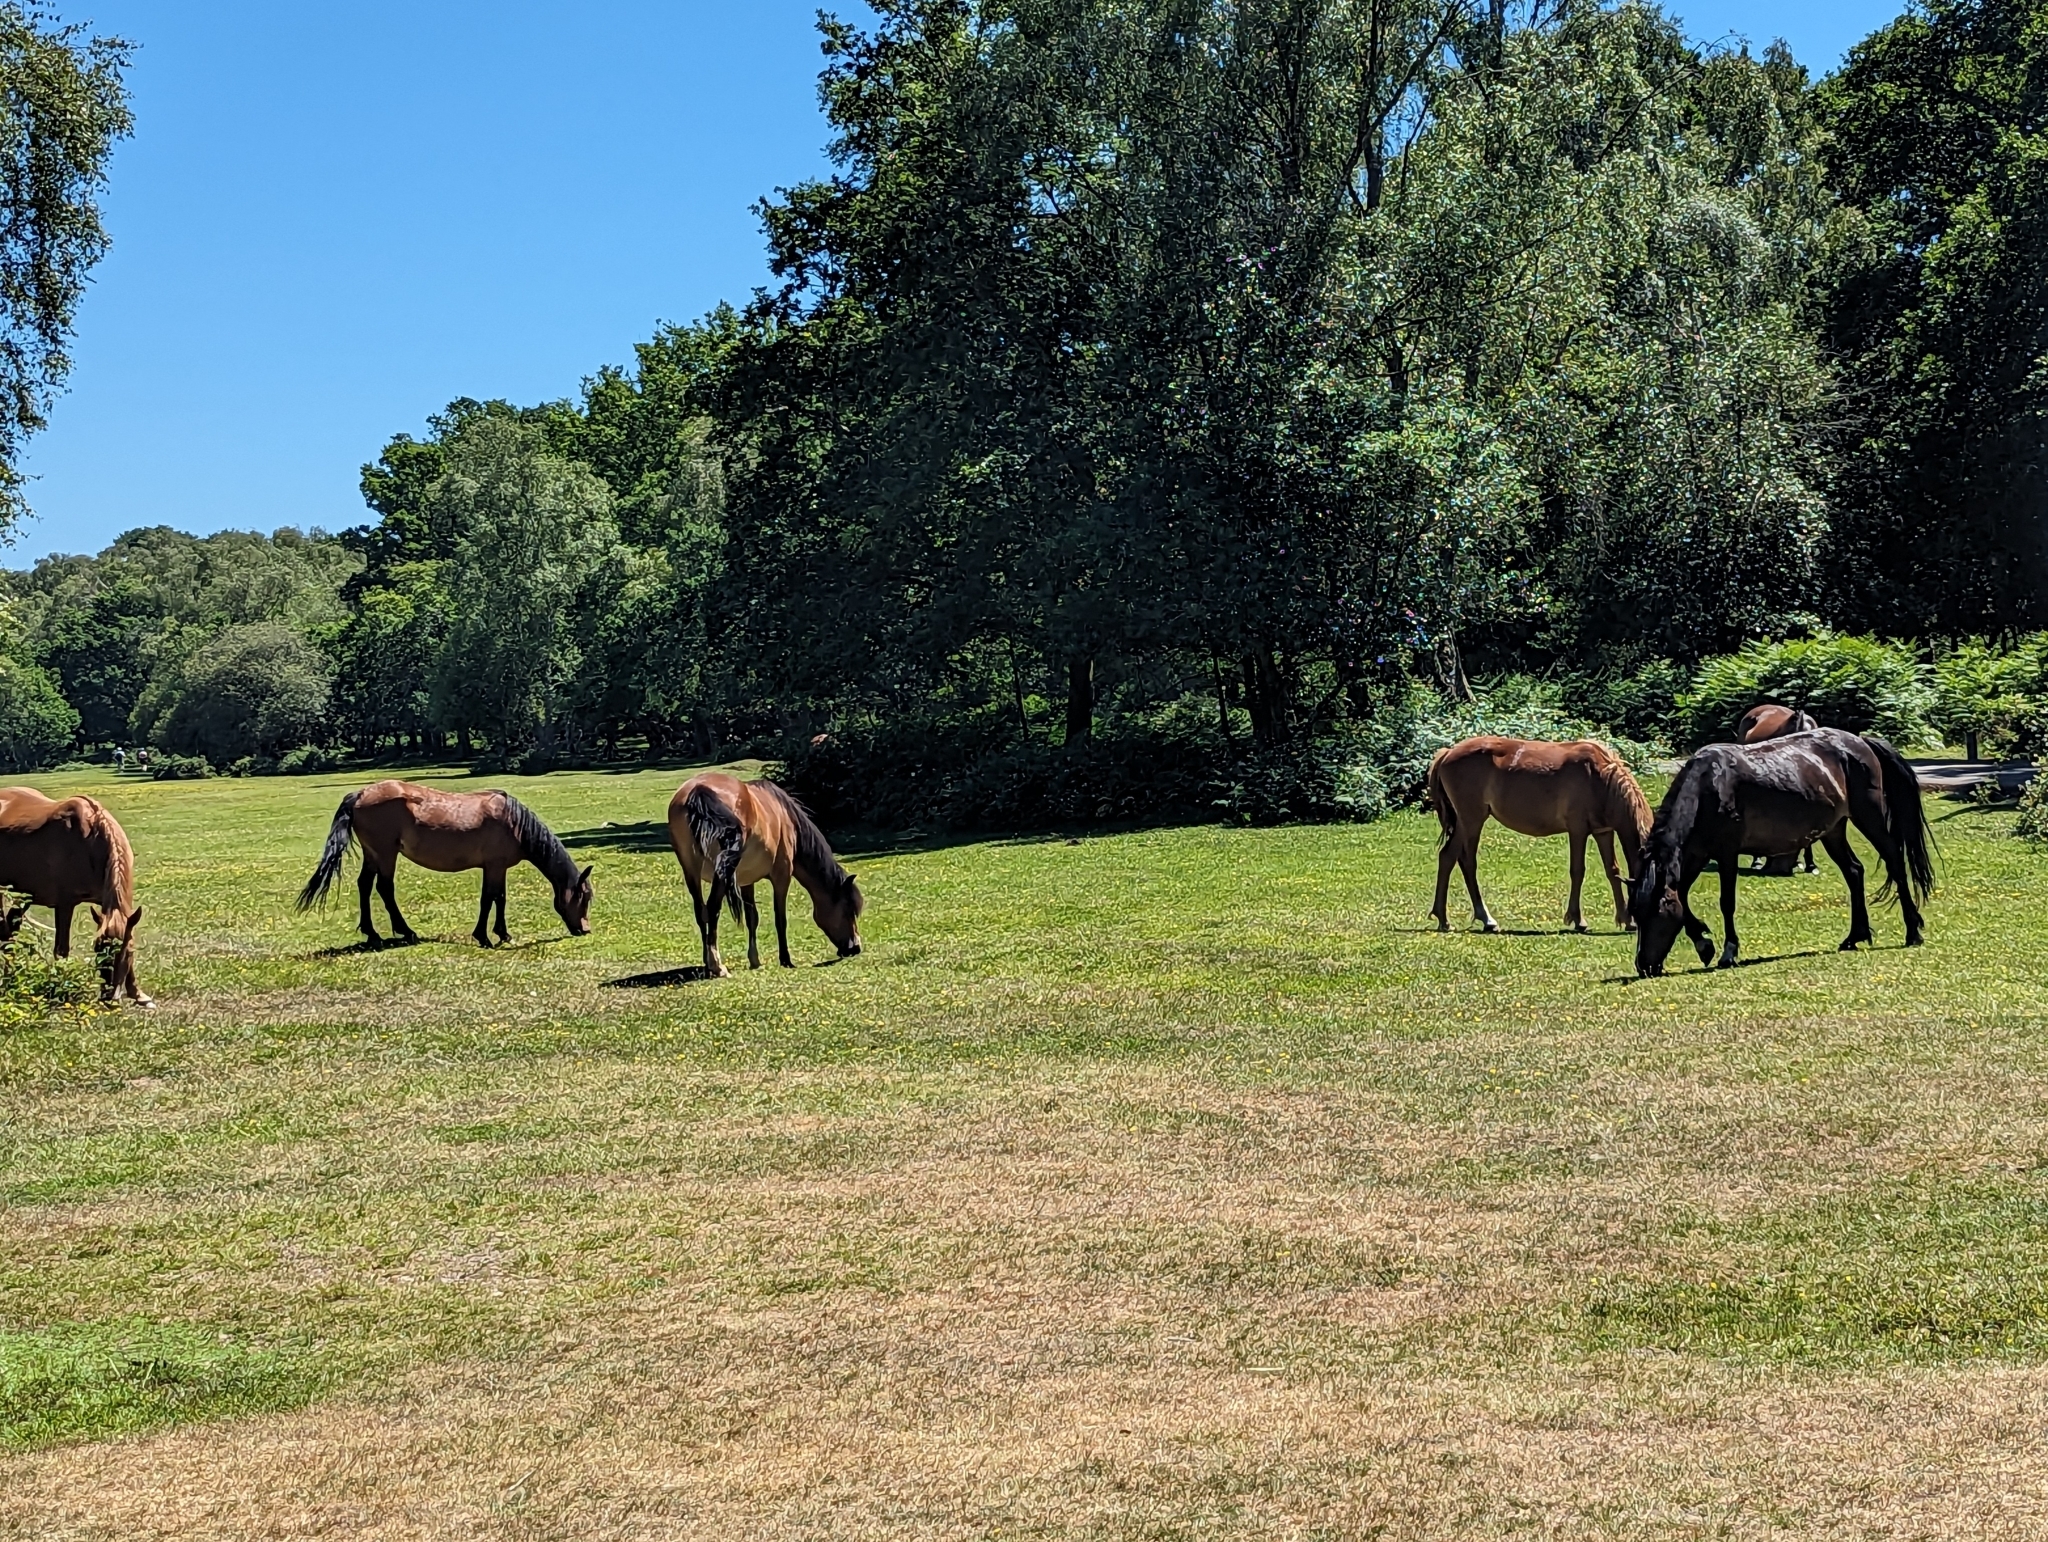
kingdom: Animalia
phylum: Chordata
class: Mammalia
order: Perissodactyla
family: Equidae
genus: Equus
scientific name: Equus caballus
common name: Horse
